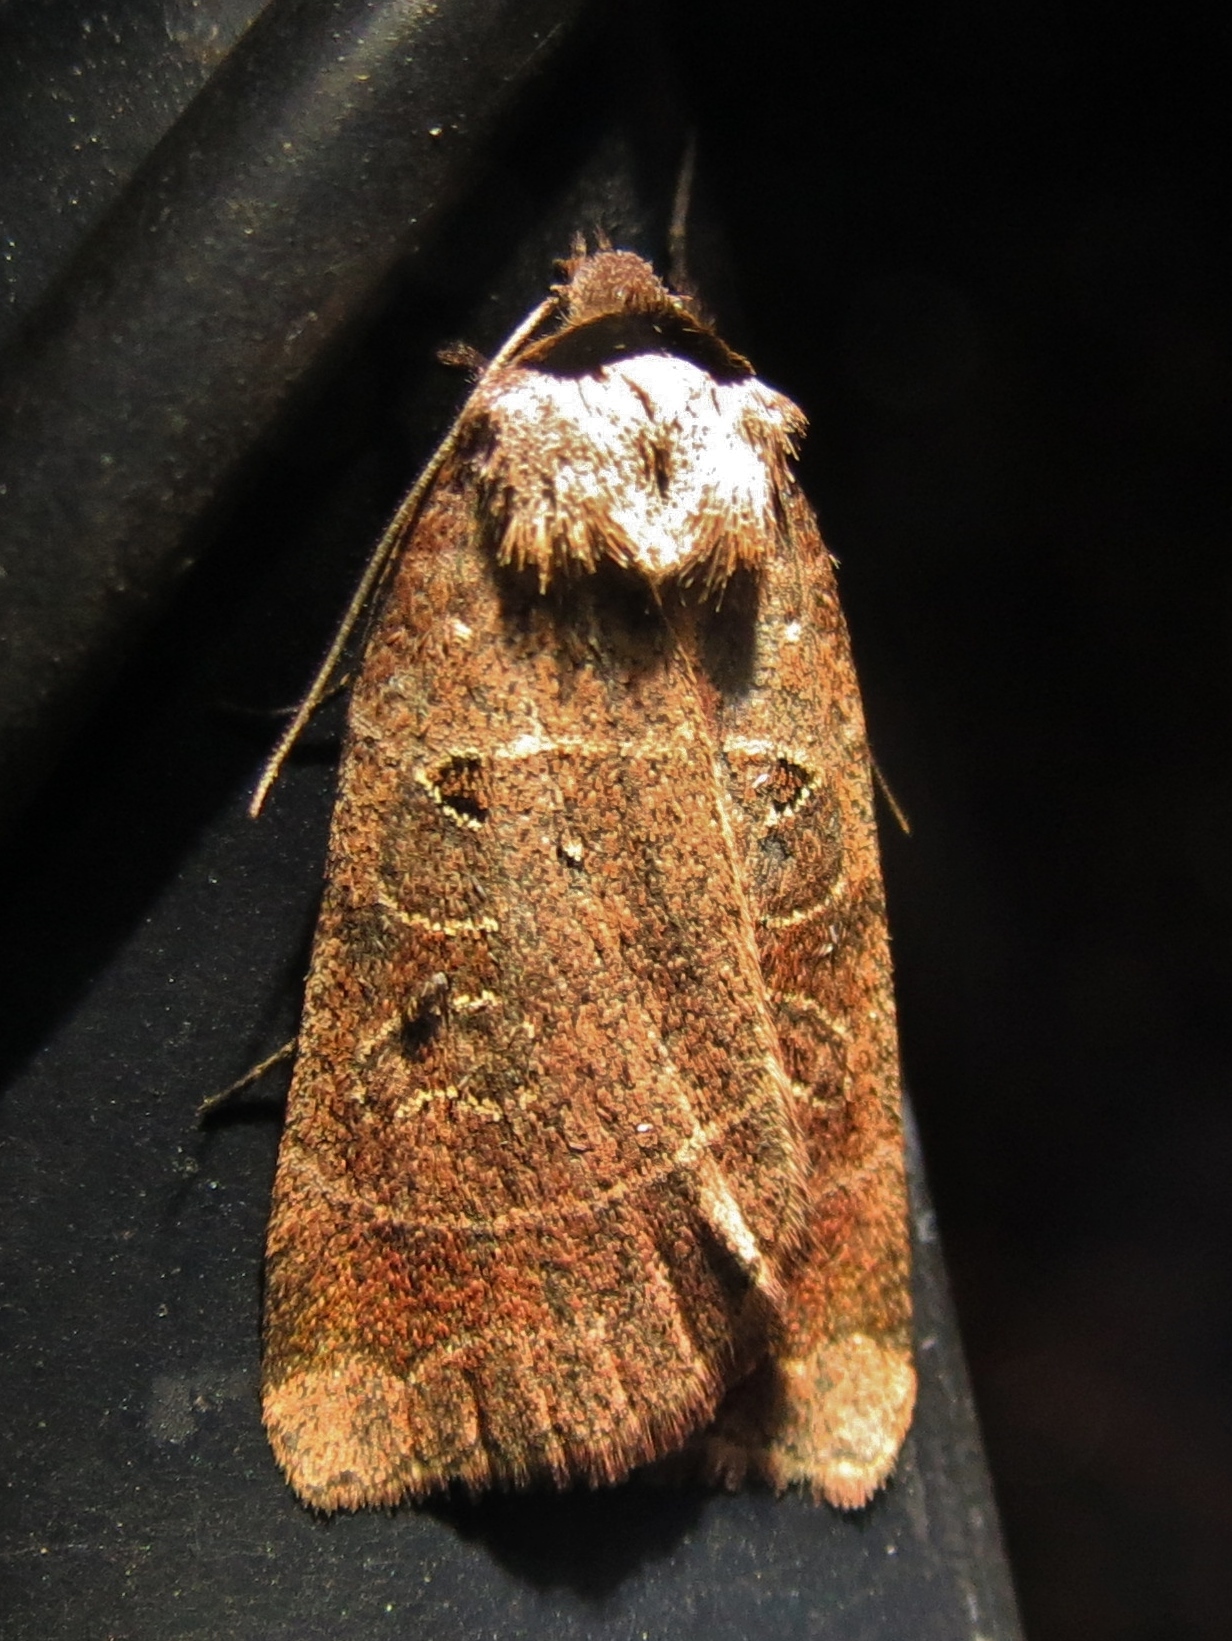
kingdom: Animalia
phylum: Arthropoda
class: Insecta
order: Lepidoptera
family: Noctuidae
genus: Agnorisma
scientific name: Agnorisma badinodis
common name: Pale-banded dart
